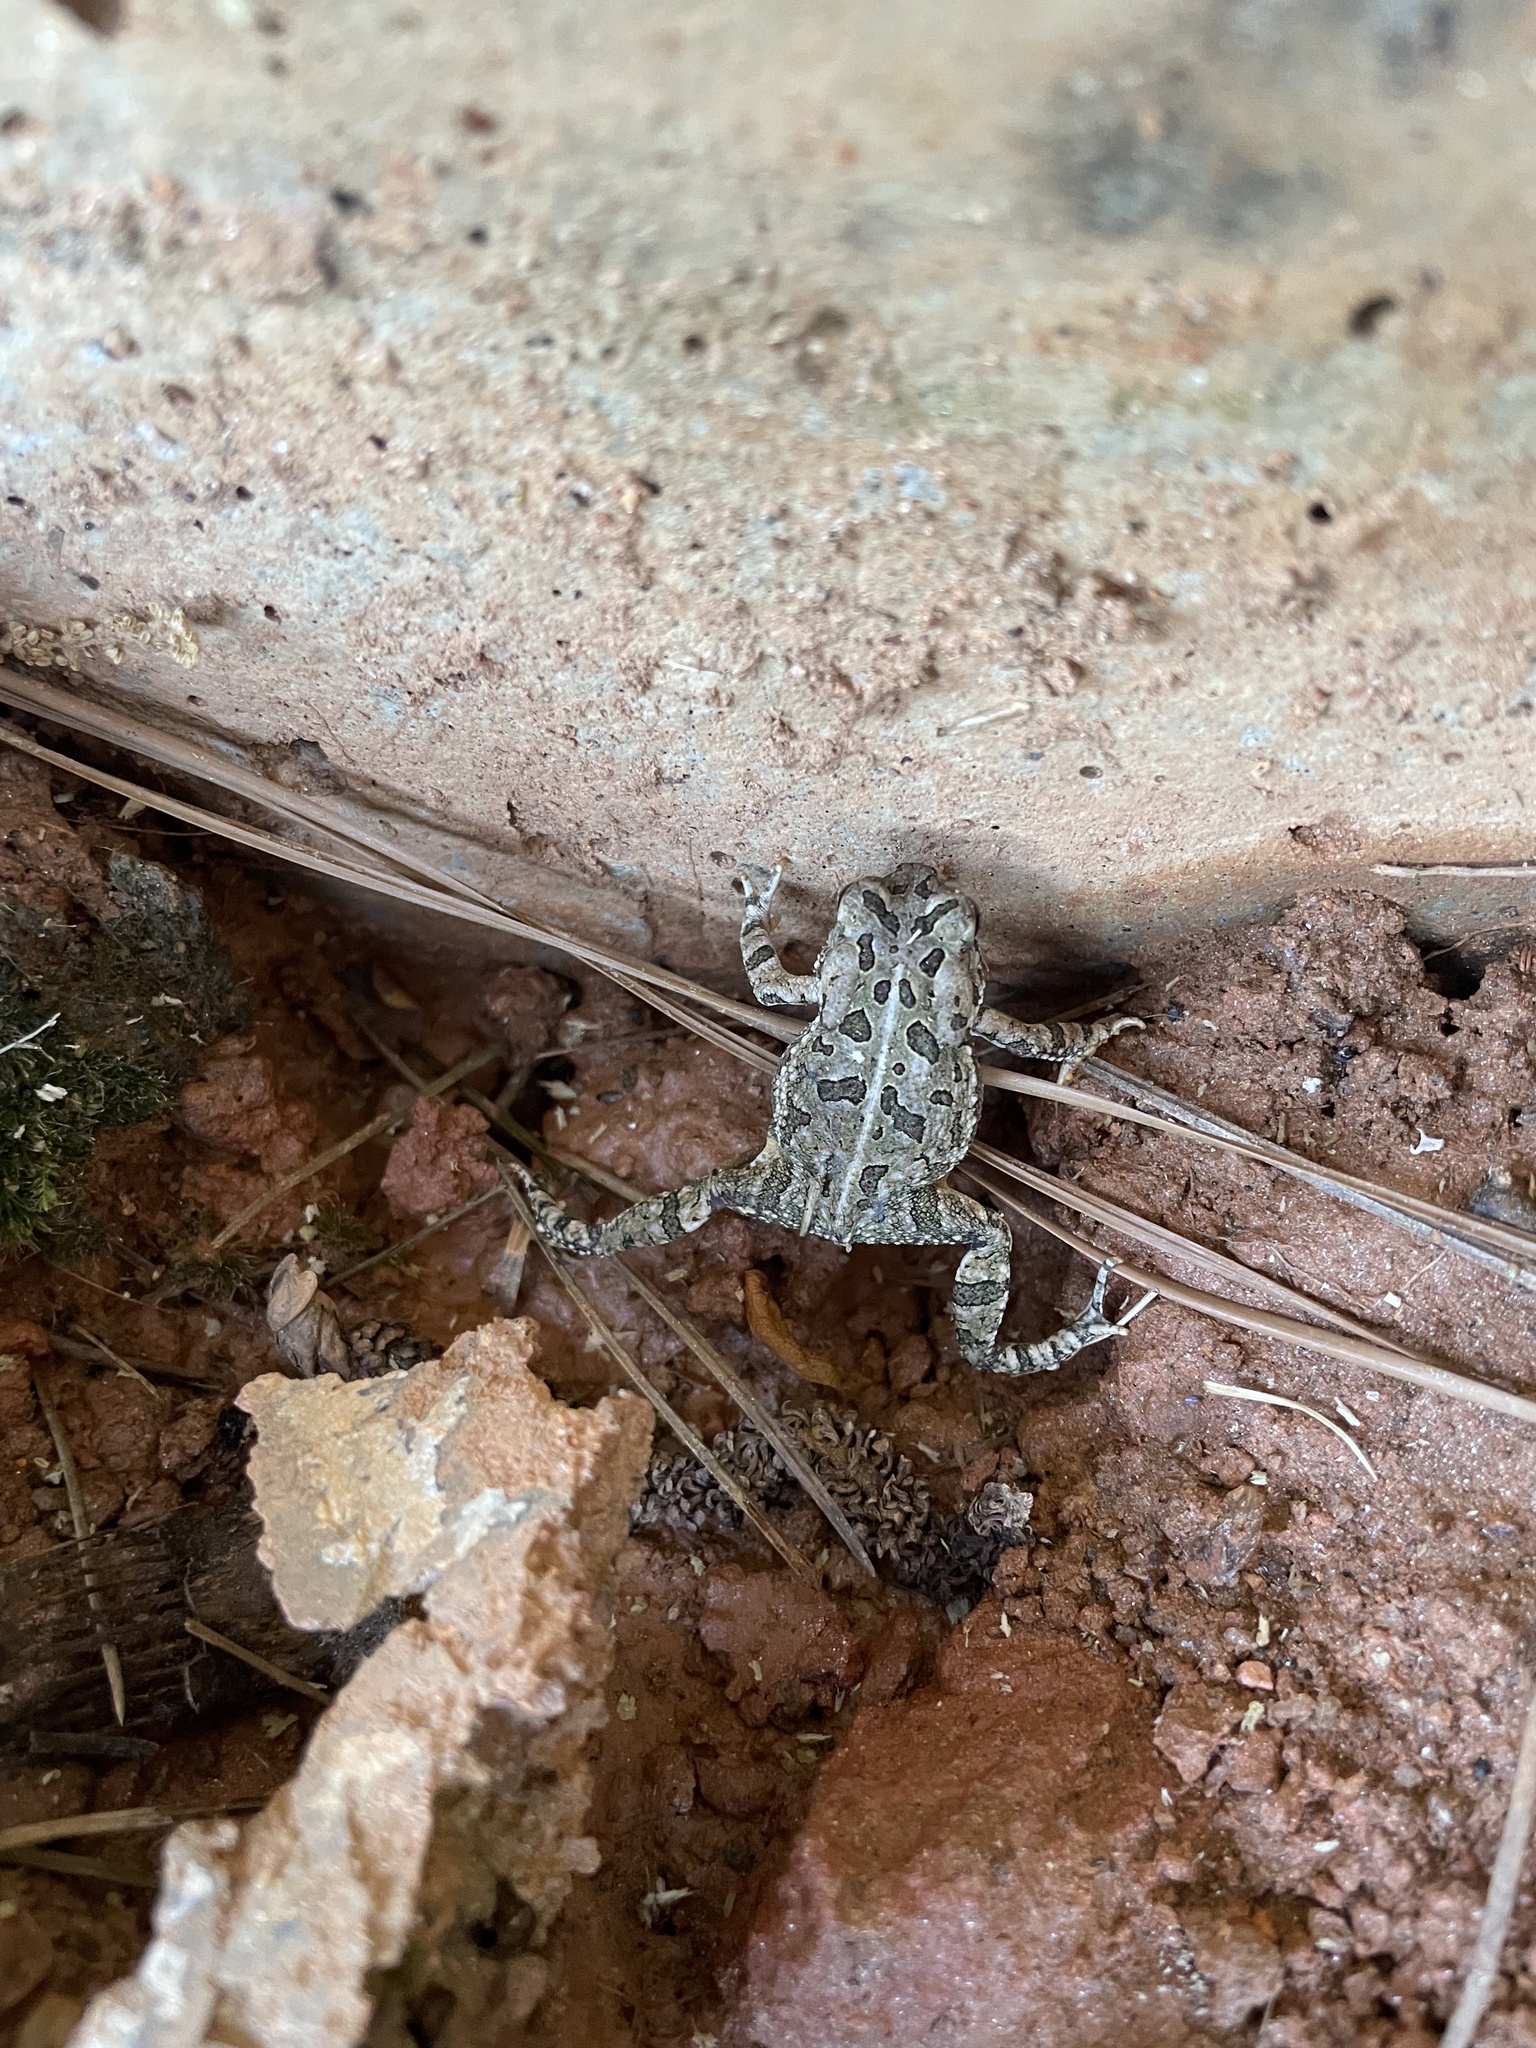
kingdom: Animalia
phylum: Chordata
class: Amphibia
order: Anura
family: Bufonidae
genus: Anaxyrus
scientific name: Anaxyrus fowleri
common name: Fowler's toad
